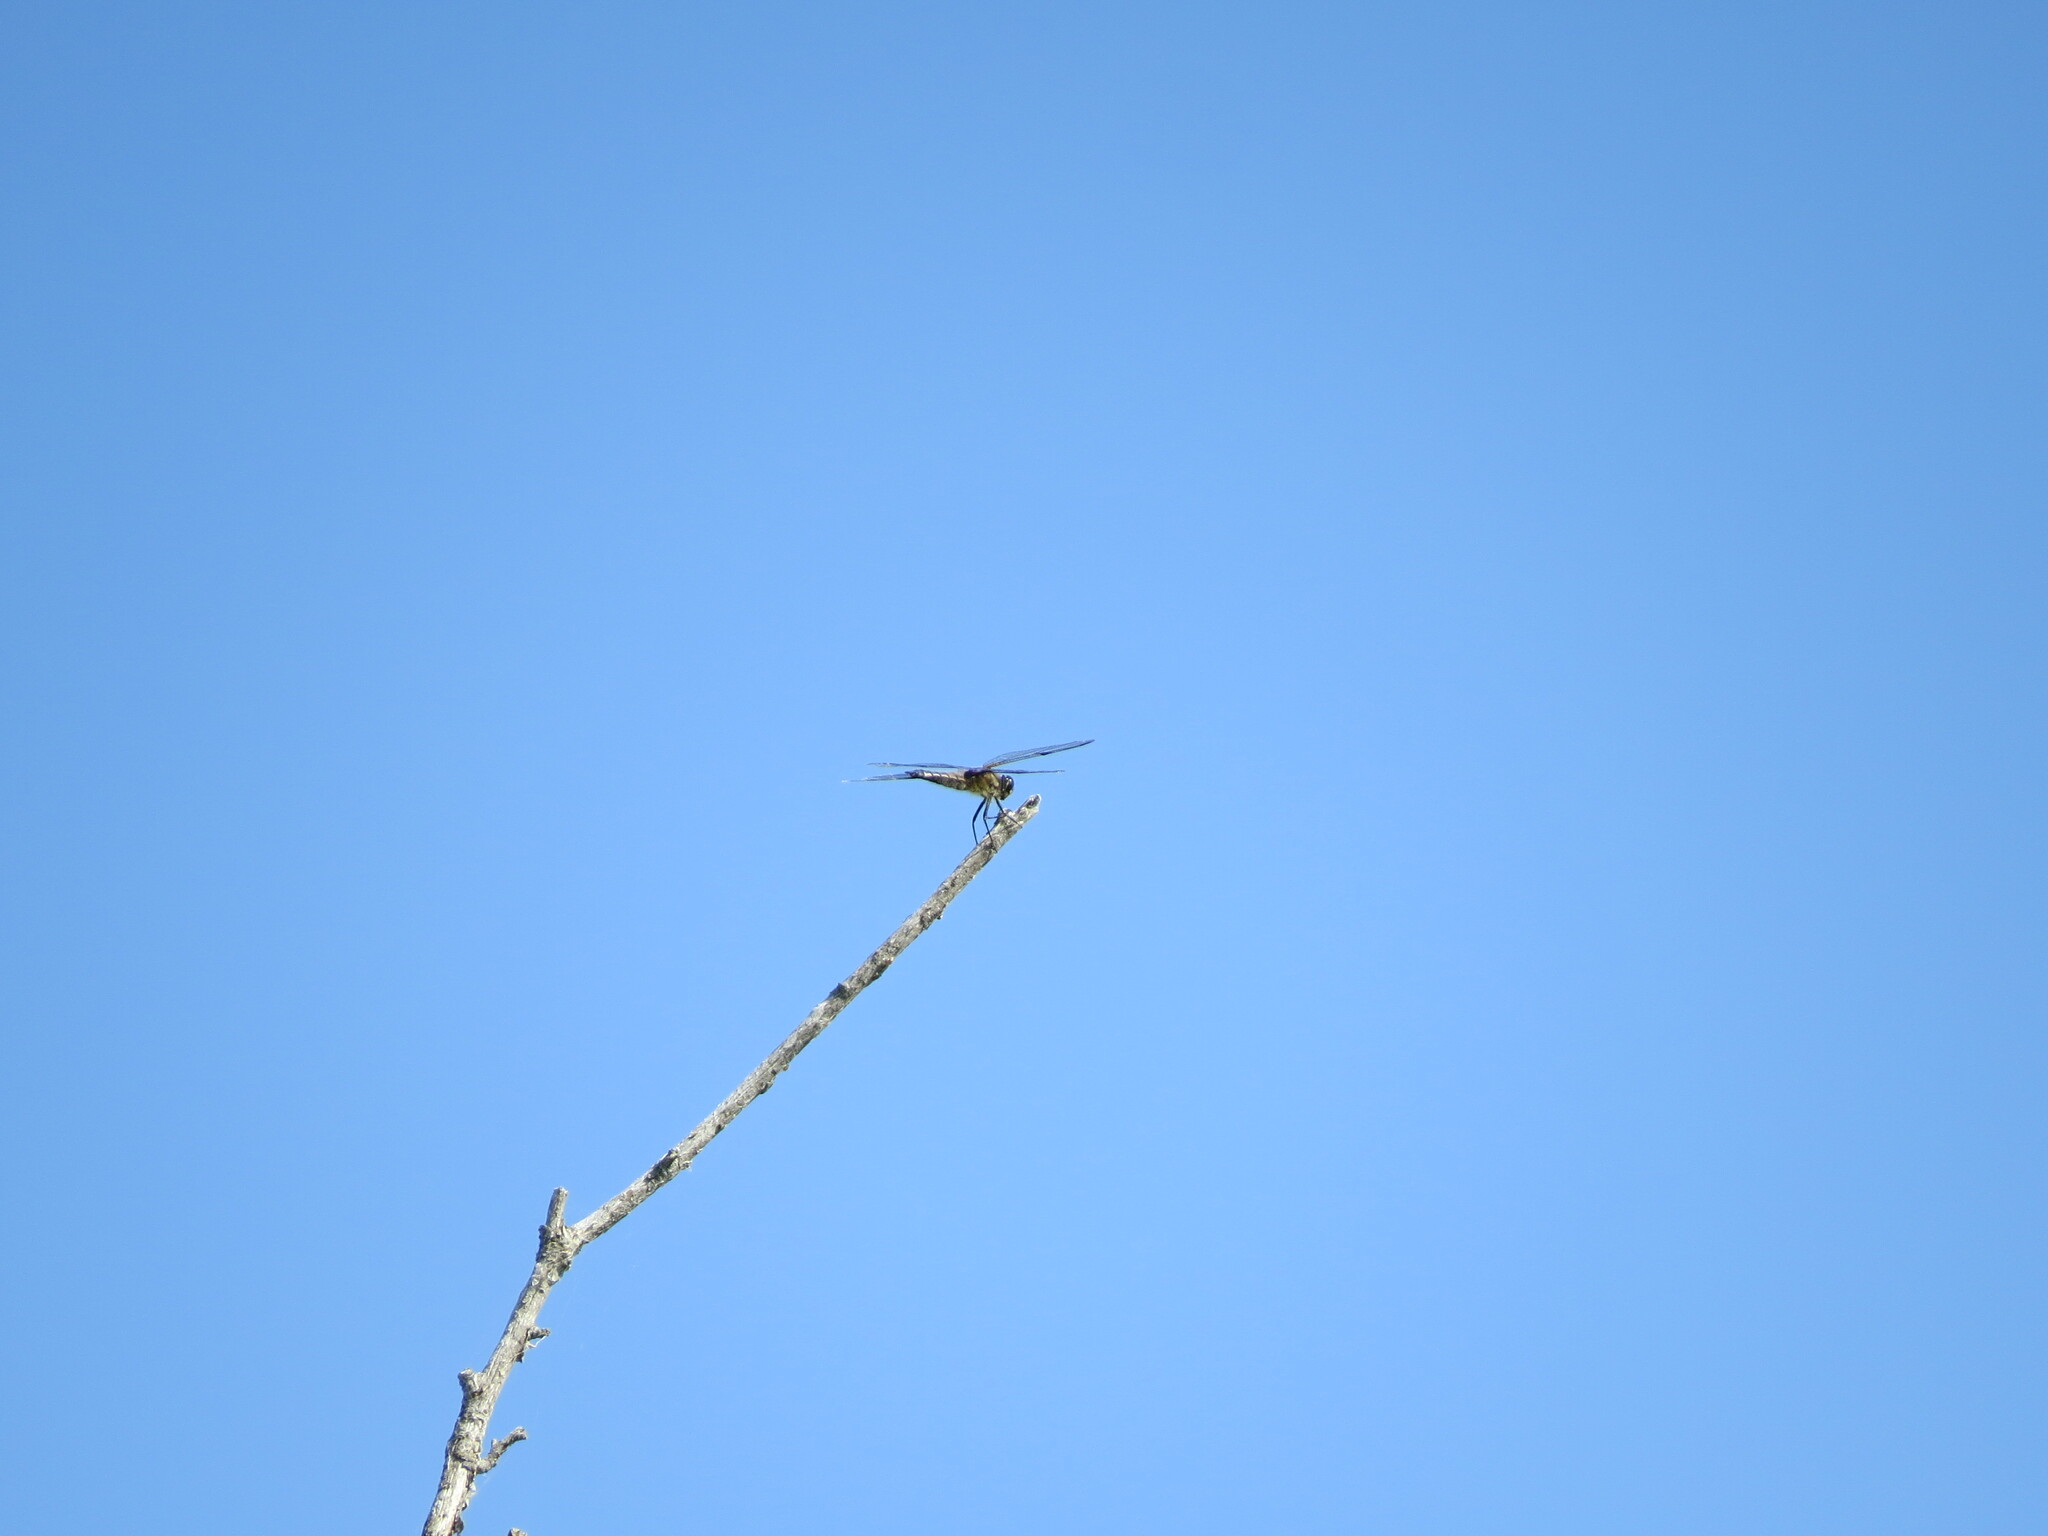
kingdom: Animalia
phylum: Arthropoda
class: Insecta
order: Odonata
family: Libellulidae
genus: Libellula
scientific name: Libellula quadrimaculata
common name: Four-spotted chaser
